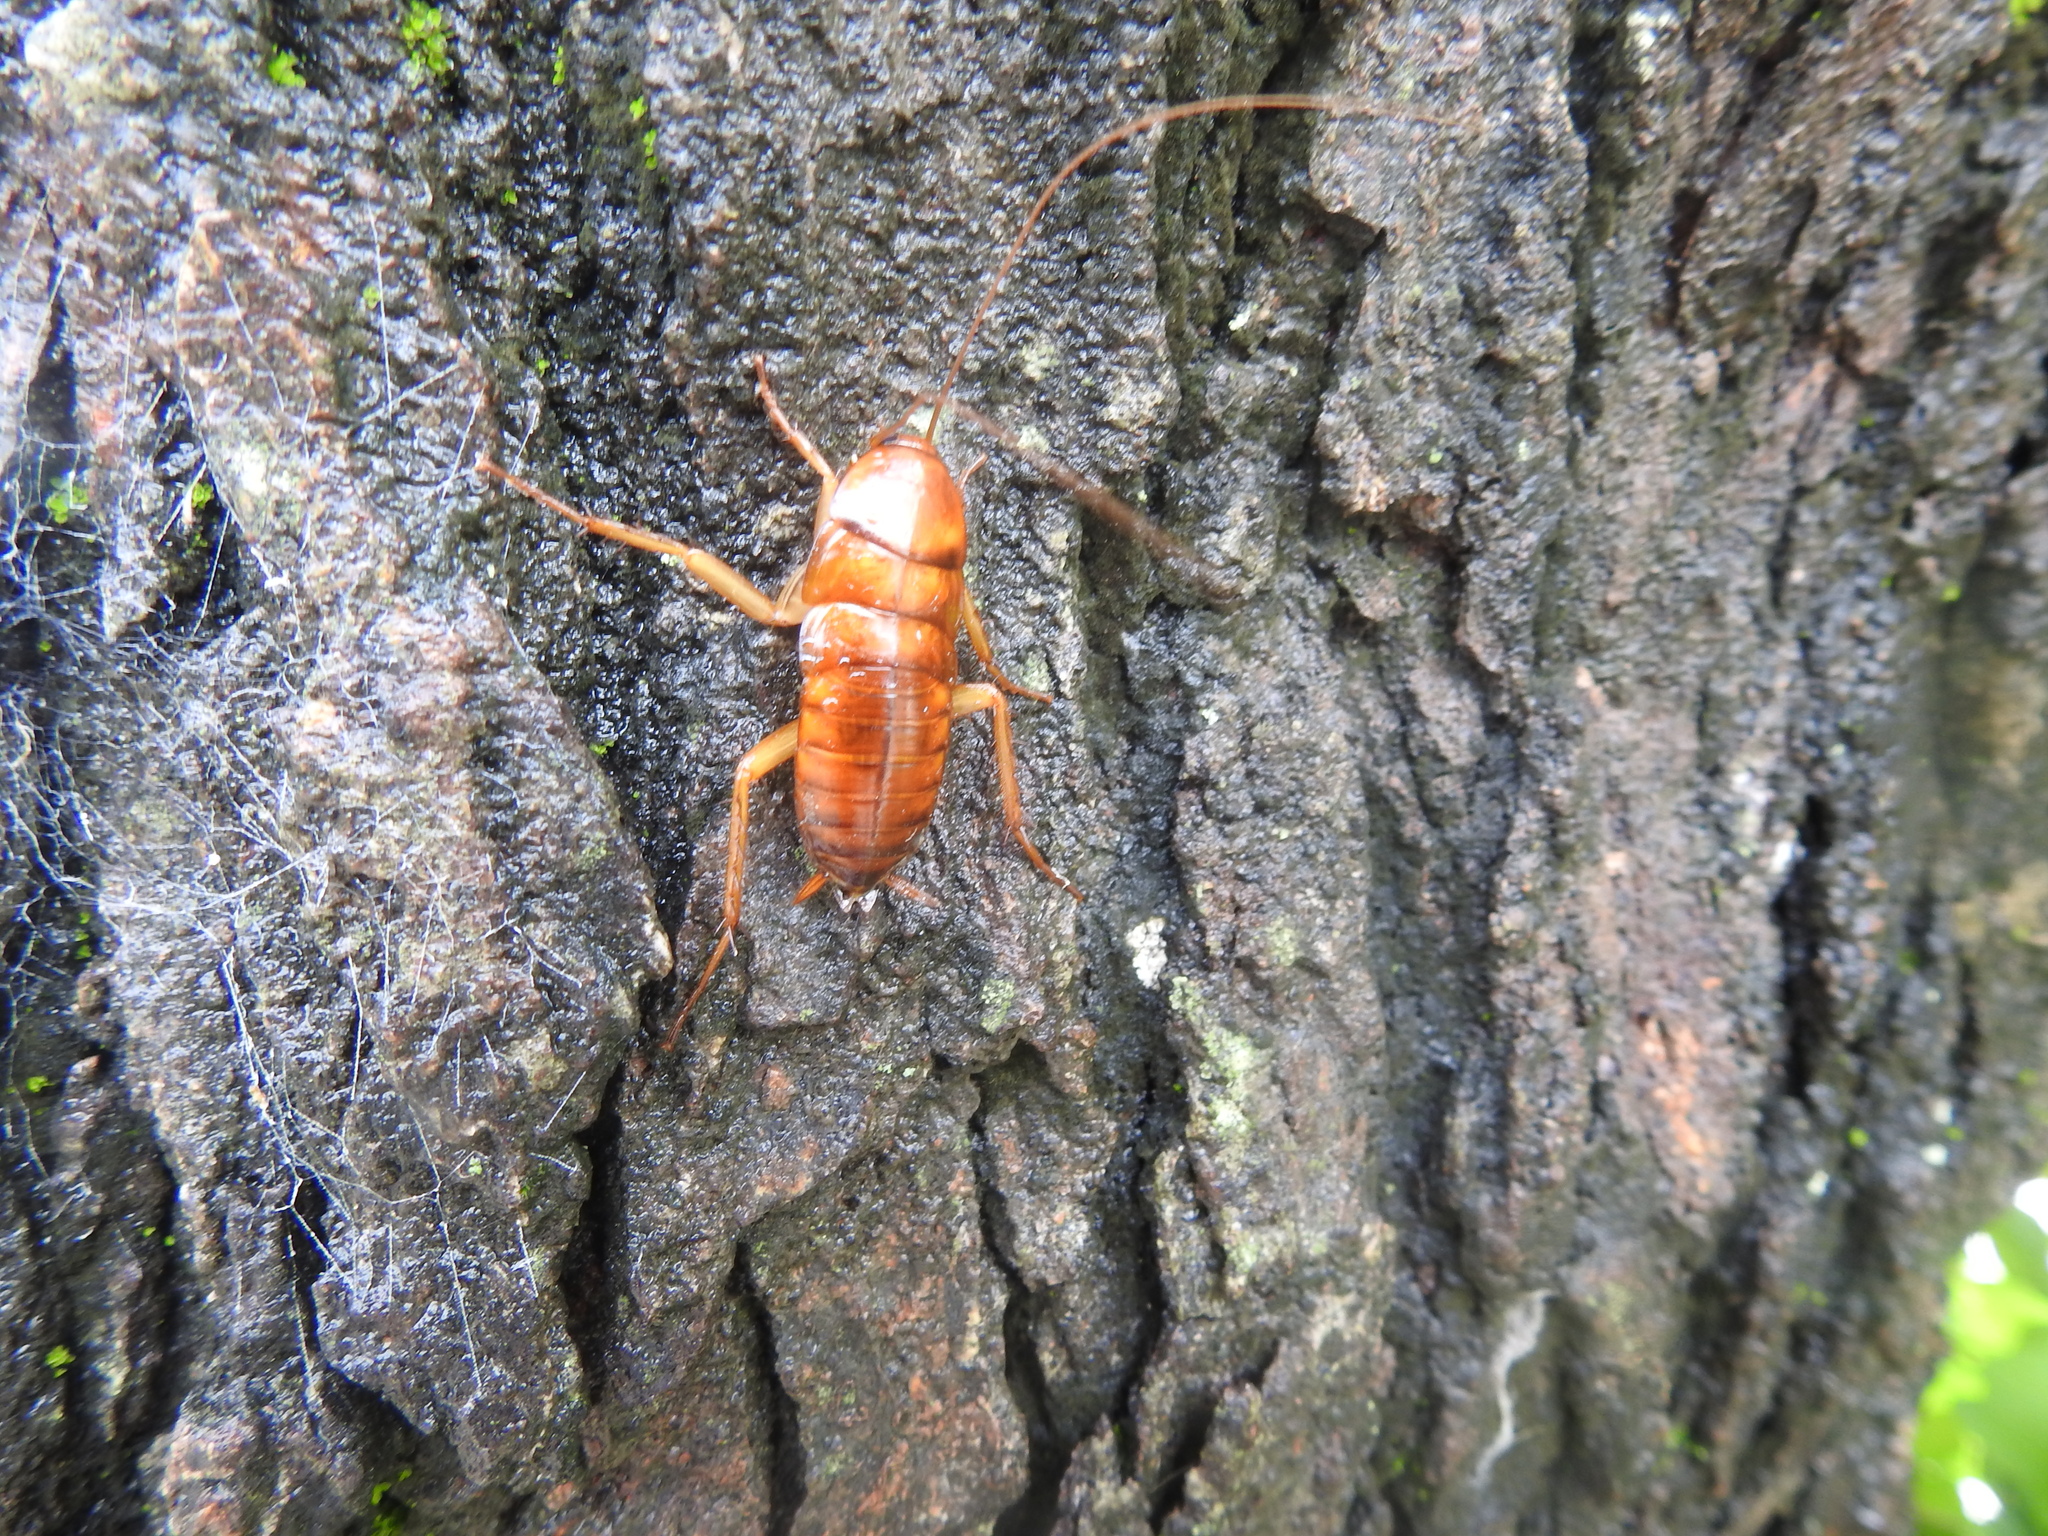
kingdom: Animalia
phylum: Arthropoda
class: Insecta
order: Blattodea
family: Blattidae
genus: Periplaneta
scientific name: Periplaneta americana
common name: American cockroach
